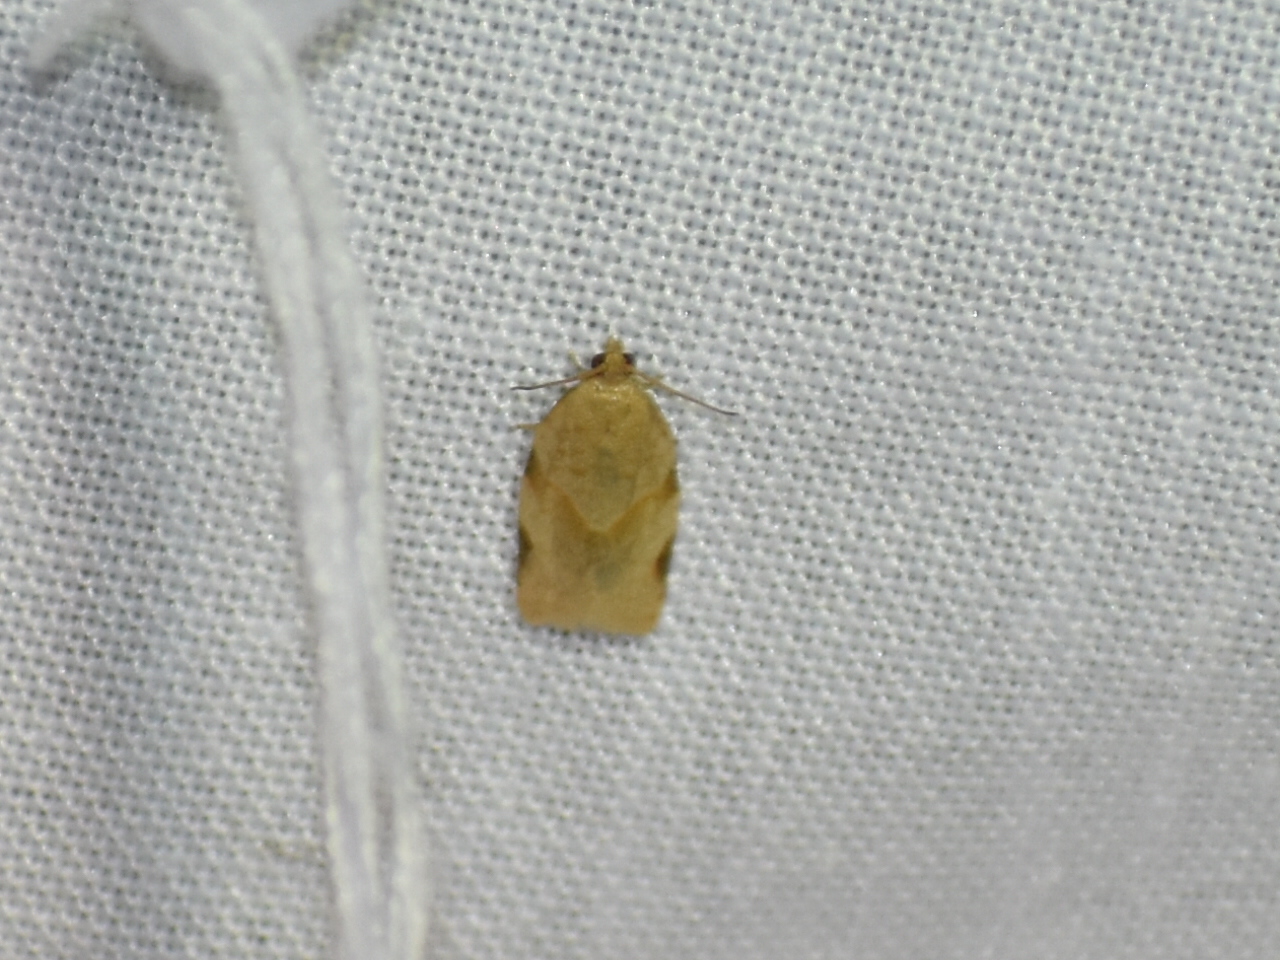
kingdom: Animalia
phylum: Arthropoda
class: Insecta
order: Lepidoptera
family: Tortricidae
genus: Clepsis
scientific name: Clepsis virescana
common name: Greenish apple moth
